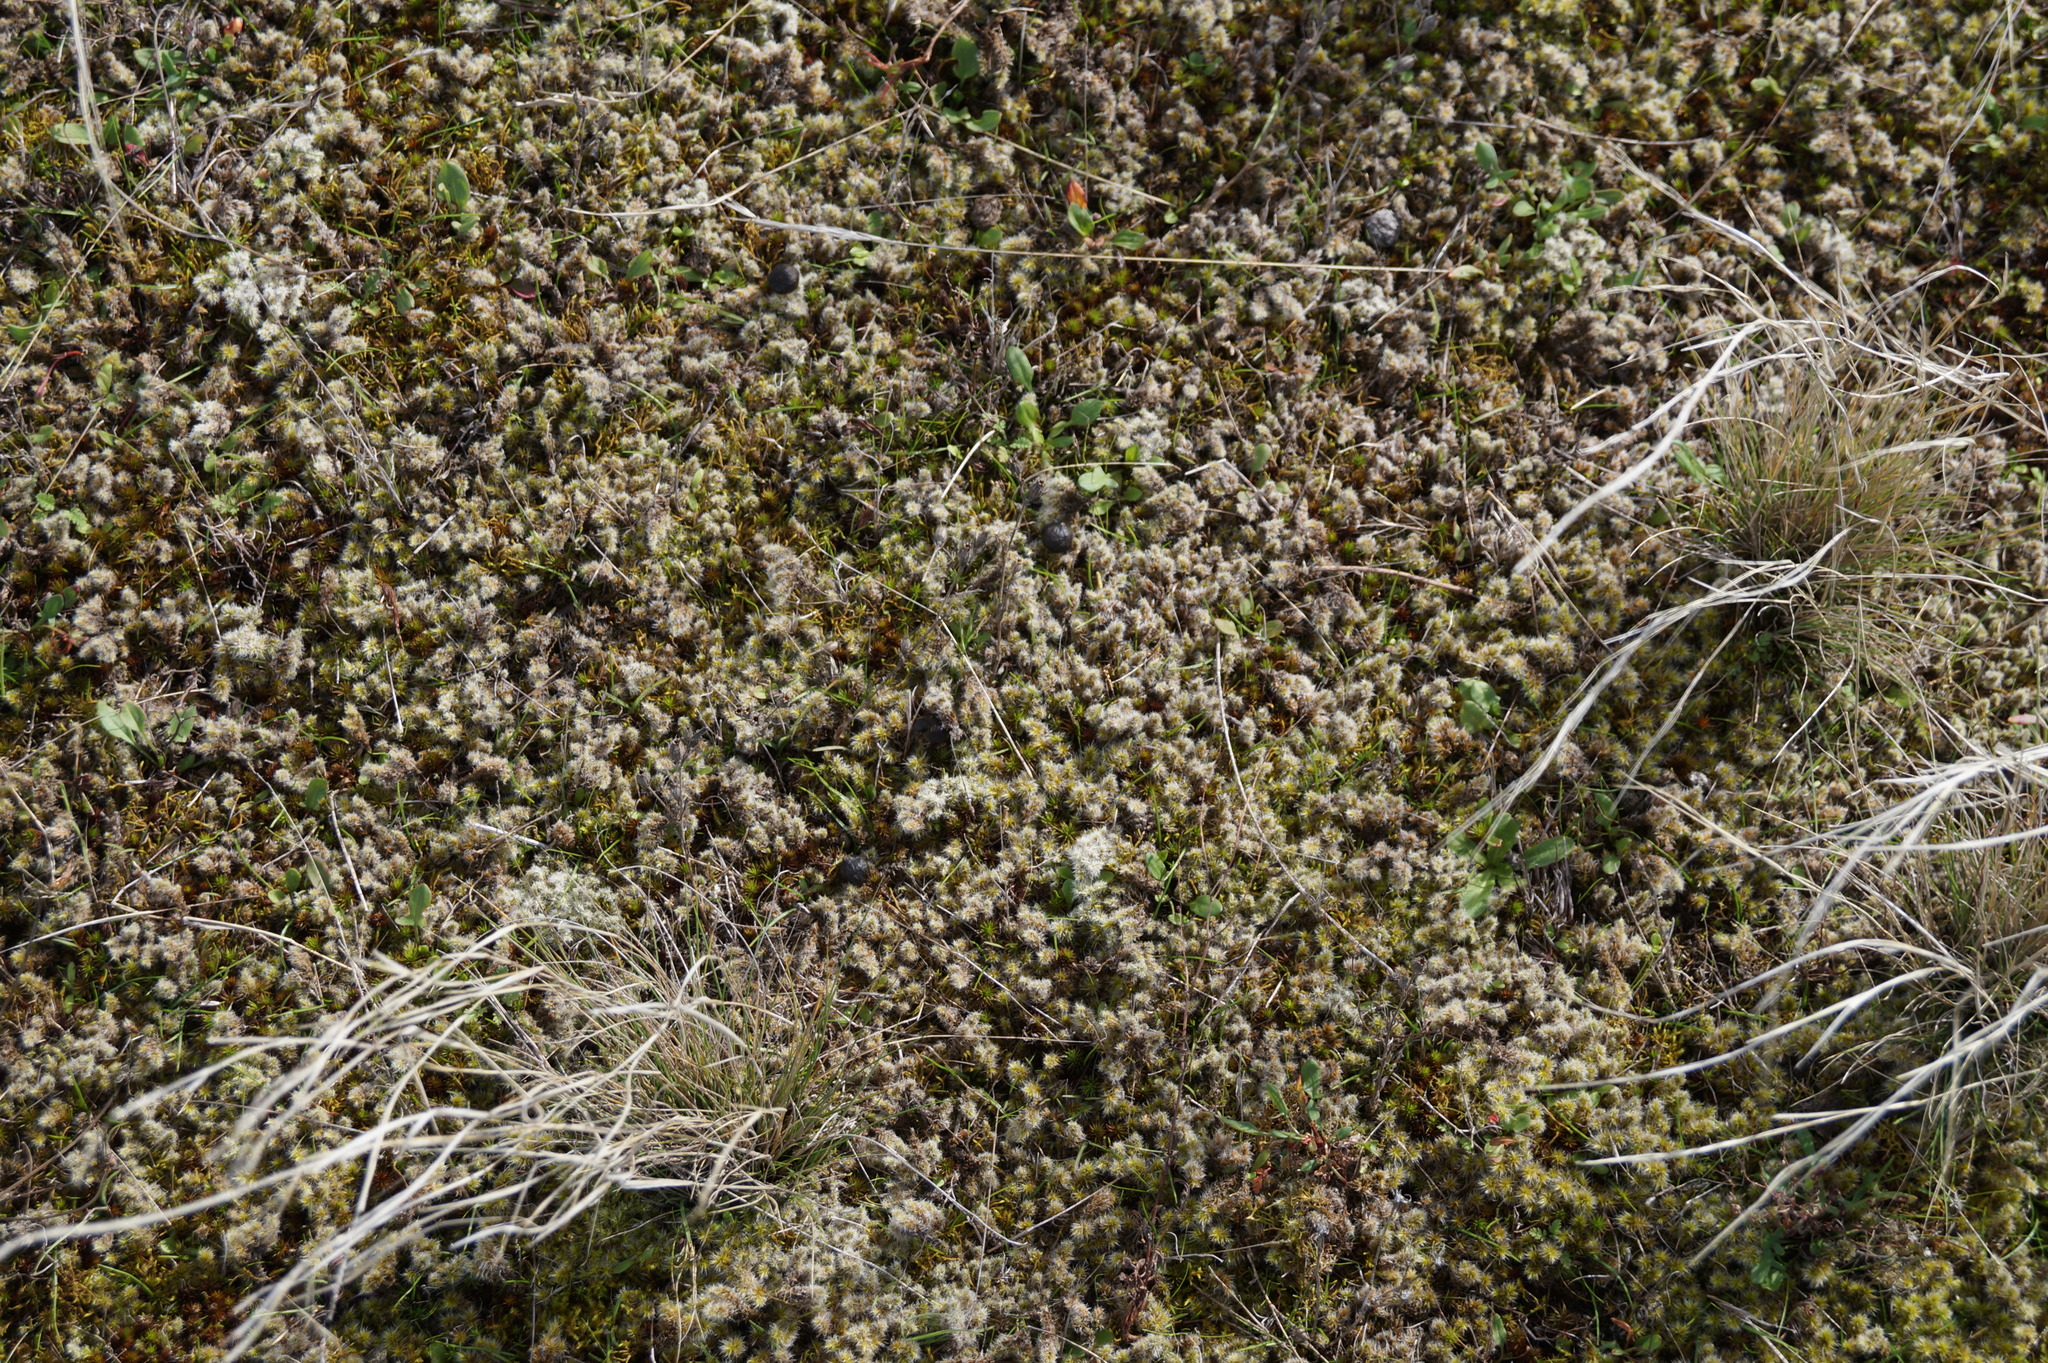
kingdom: Plantae
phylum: Bryophyta
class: Bryopsida
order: Grimmiales
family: Grimmiaceae
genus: Racomitrium
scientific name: Racomitrium lanuginosum
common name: Hoary rock moss
